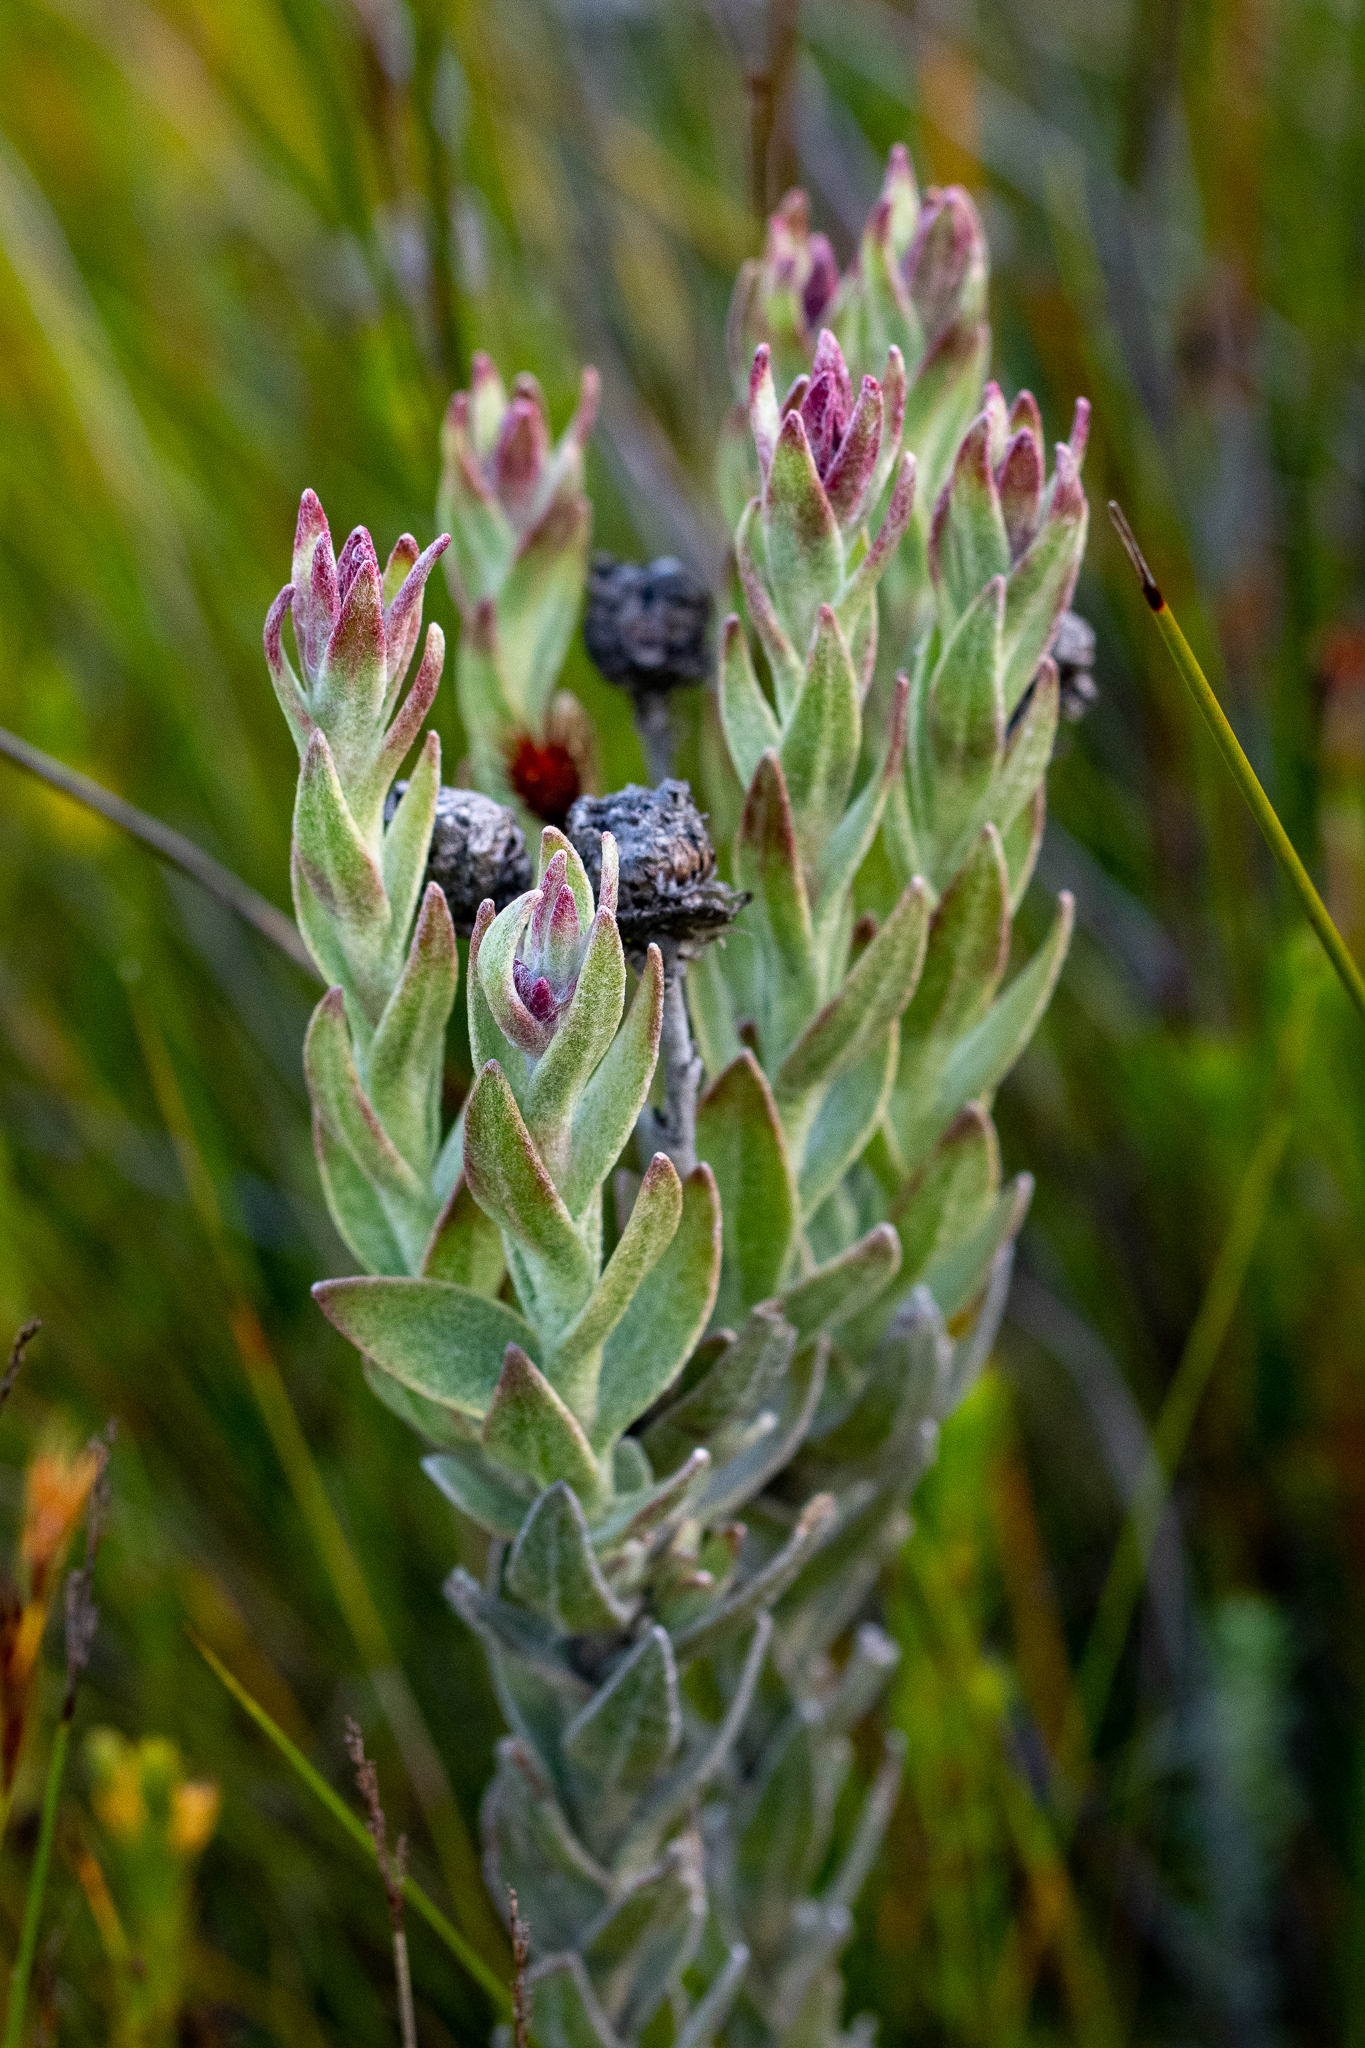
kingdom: Plantae
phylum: Tracheophyta
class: Magnoliopsida
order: Asterales
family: Asteraceae
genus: Syncarpha
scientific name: Syncarpha zeyheri
